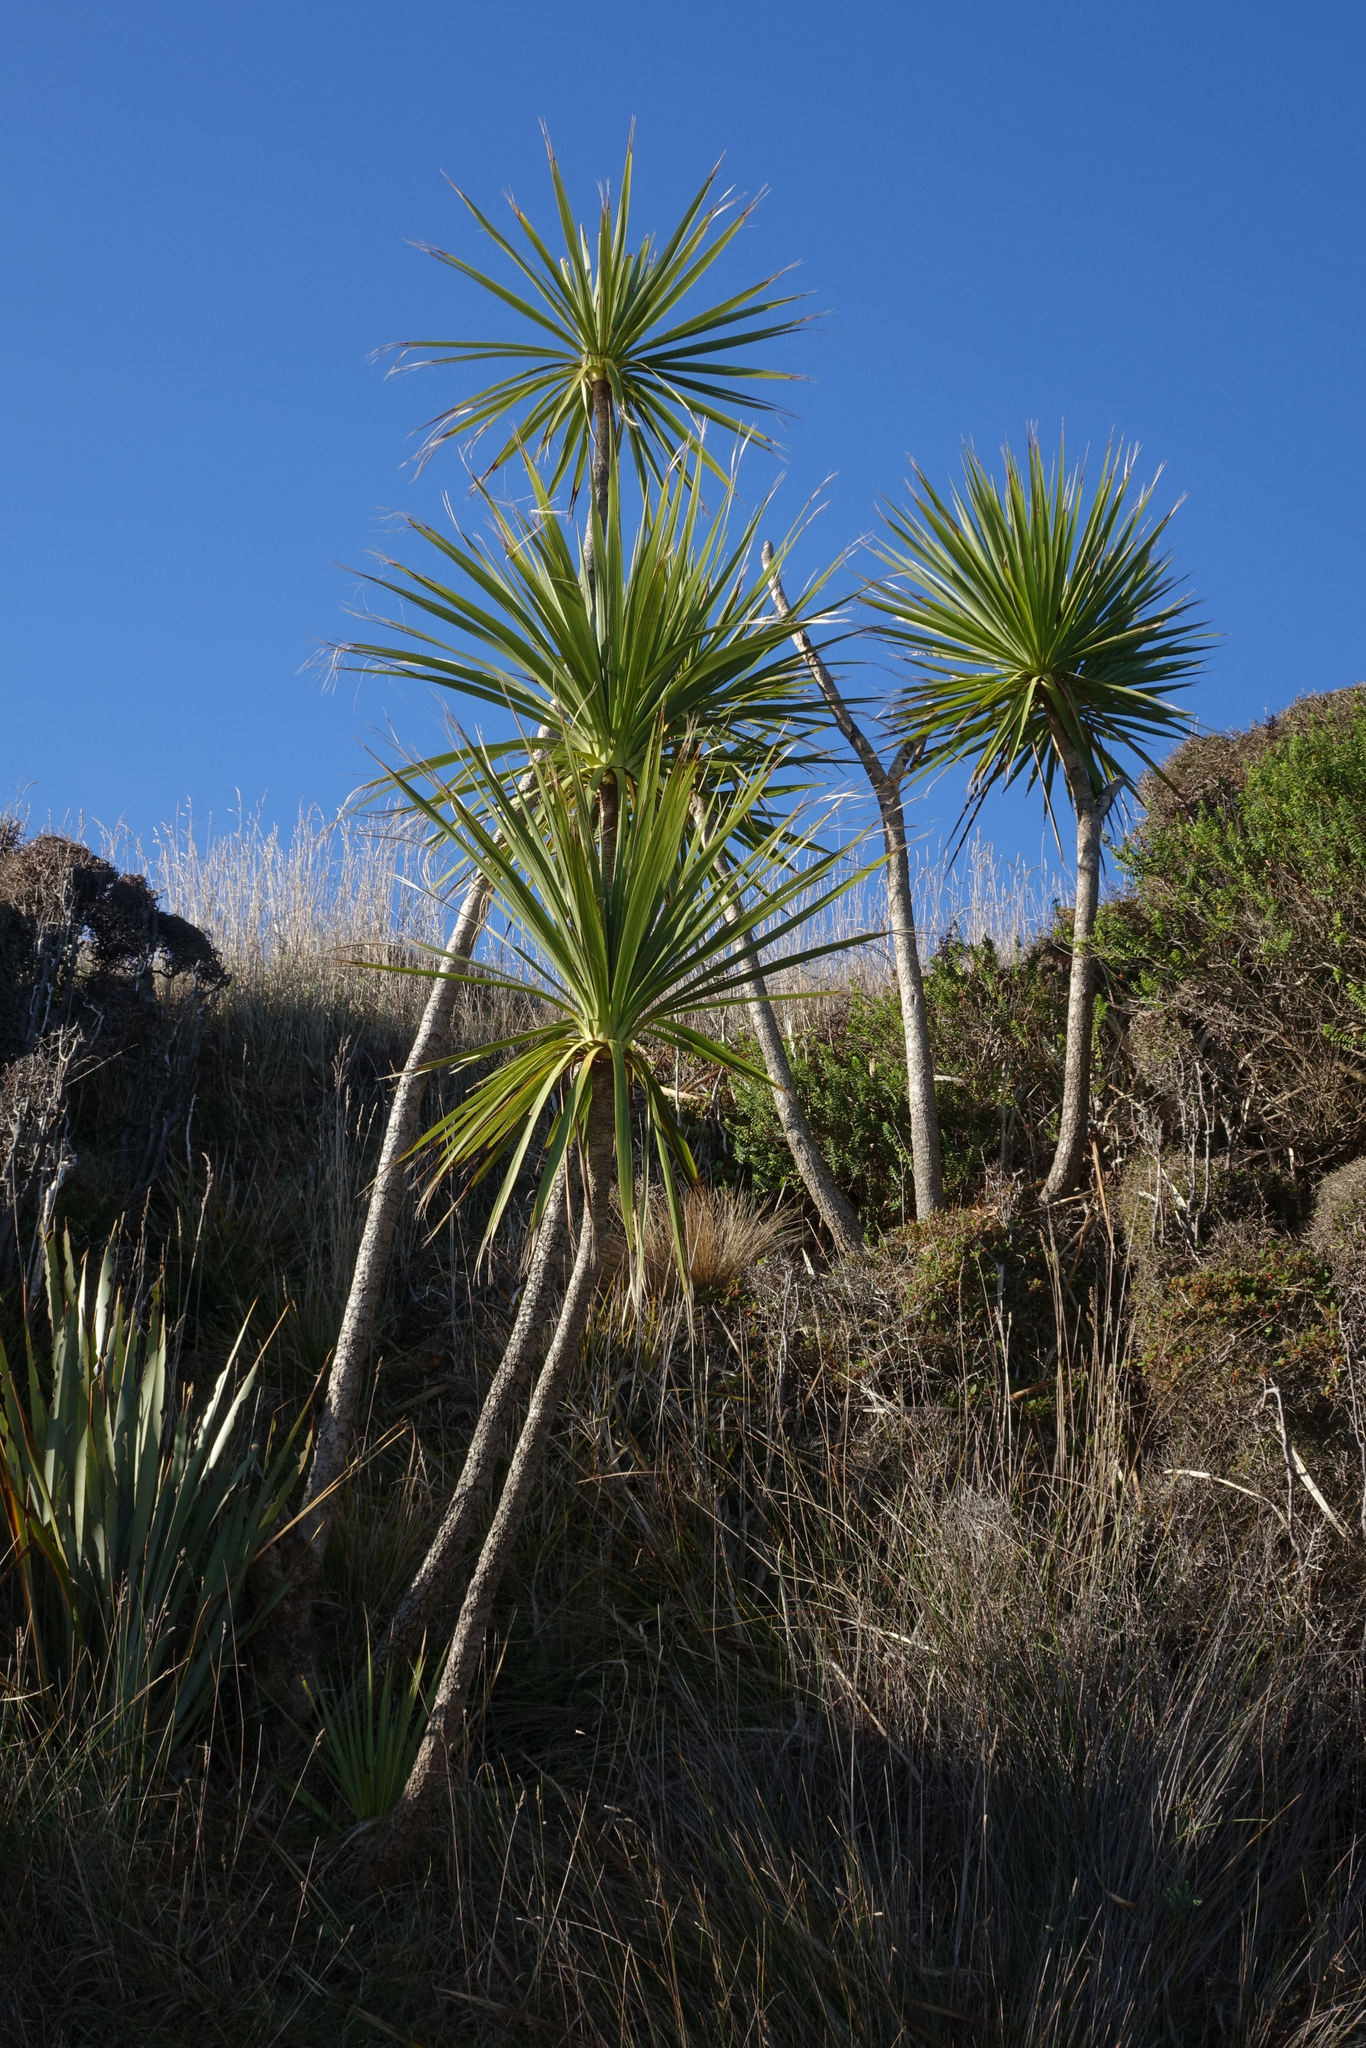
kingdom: Plantae
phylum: Tracheophyta
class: Liliopsida
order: Asparagales
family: Asparagaceae
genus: Cordyline
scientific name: Cordyline australis
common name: Cabbage-palm
